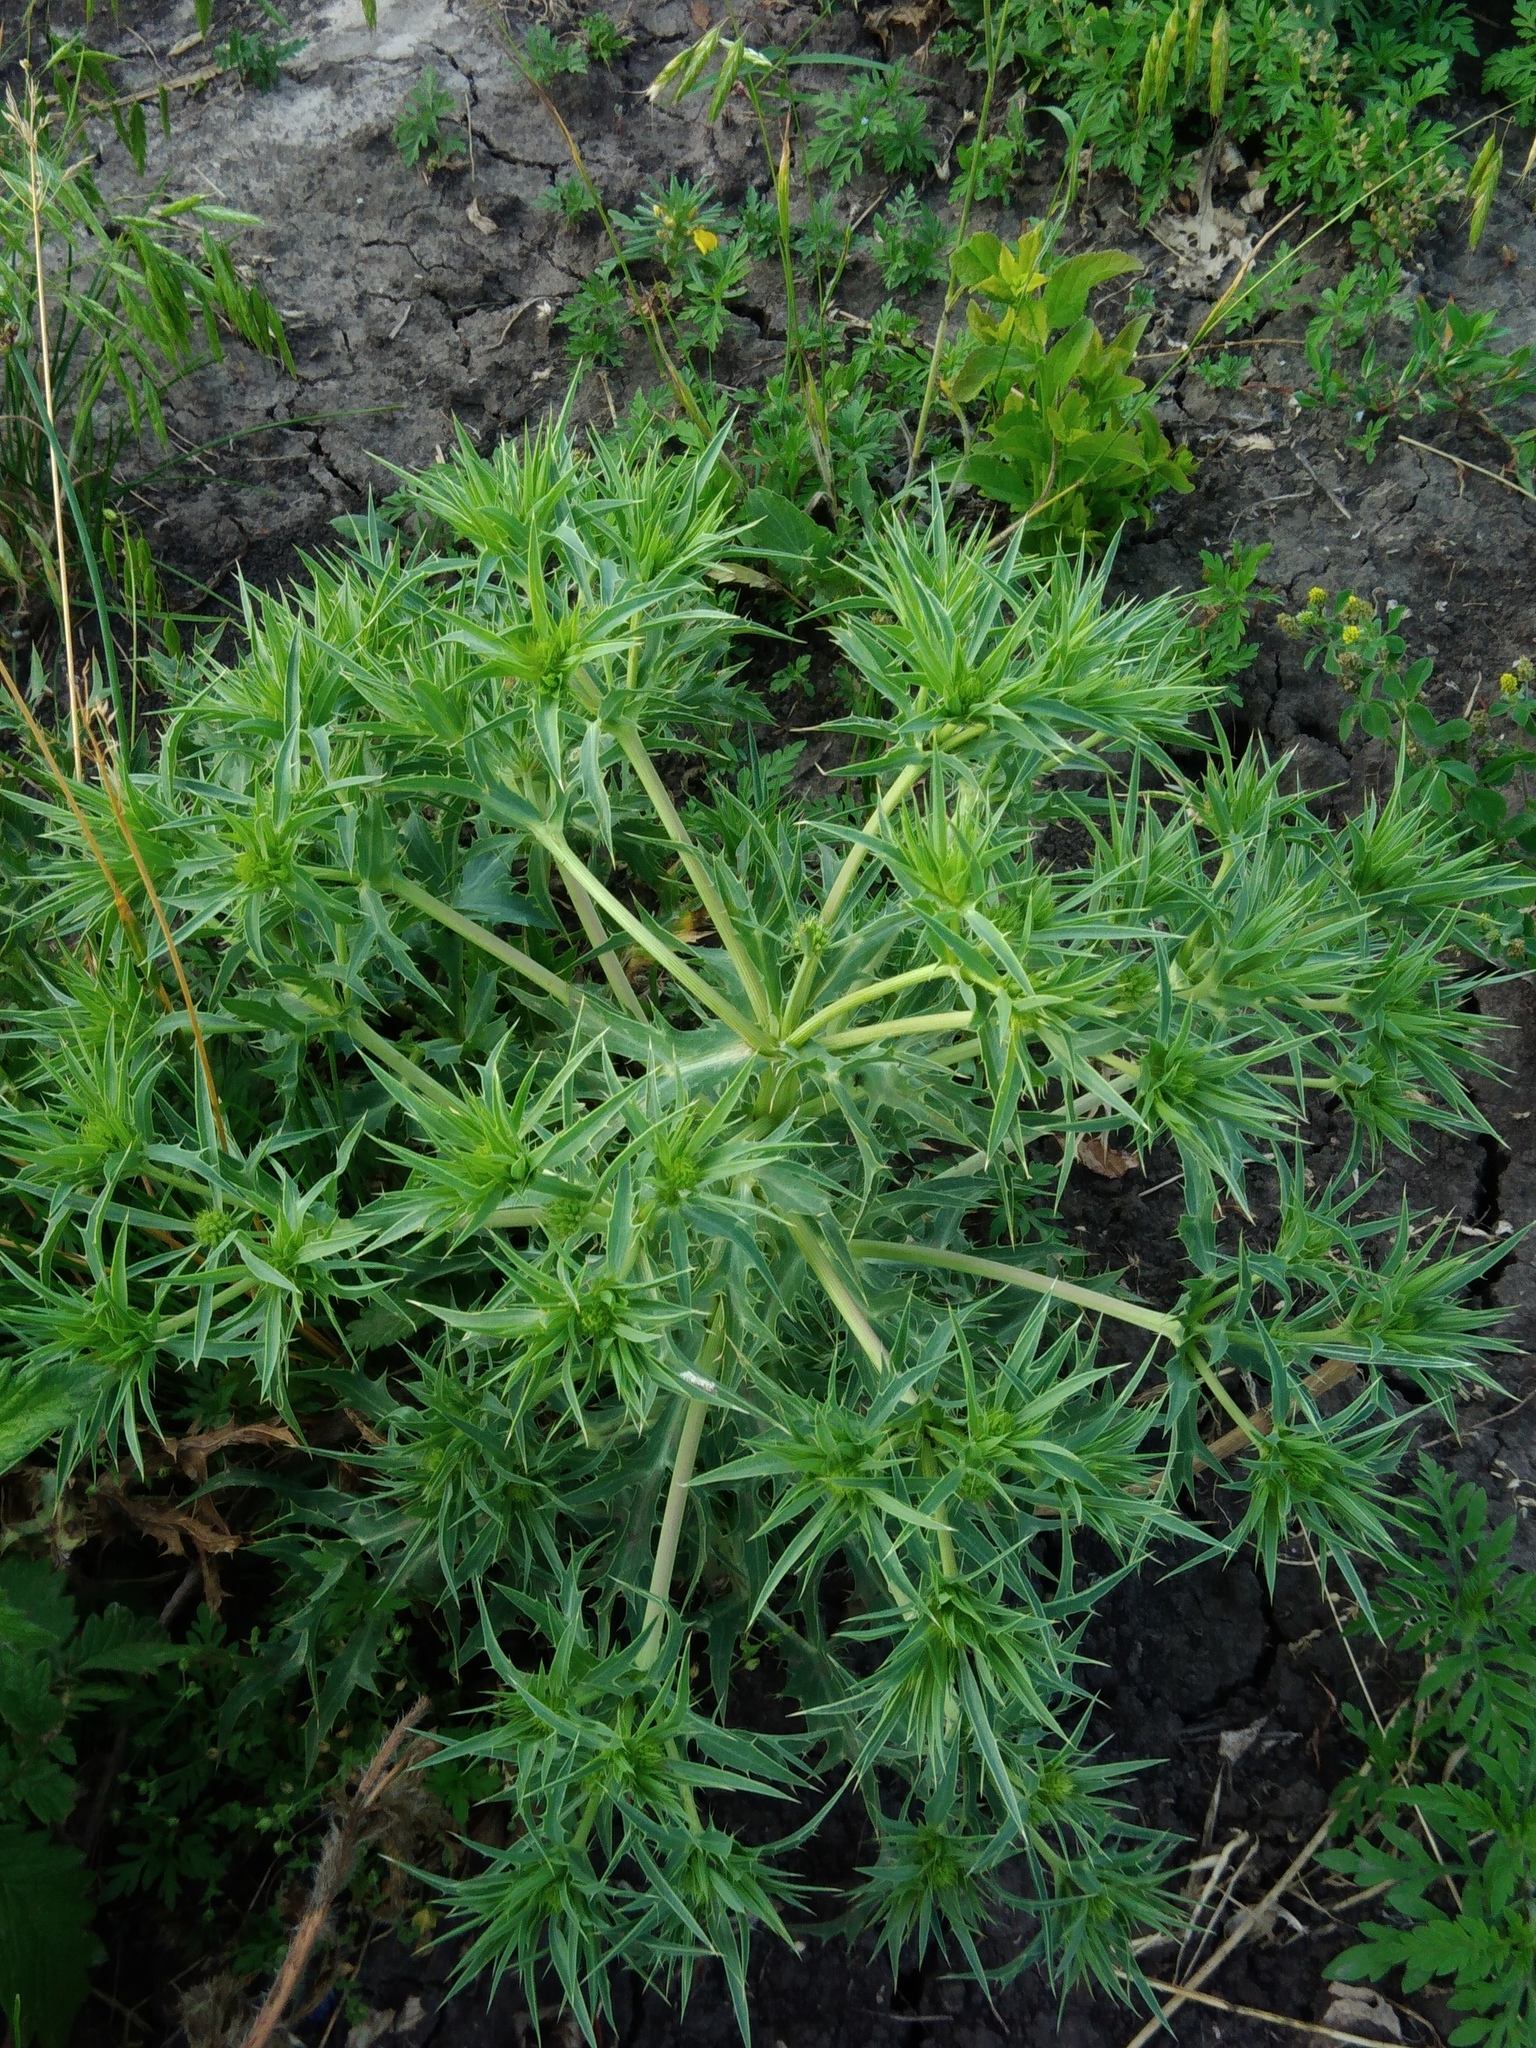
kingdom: Plantae
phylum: Tracheophyta
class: Magnoliopsida
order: Apiales
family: Apiaceae
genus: Eryngium
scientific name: Eryngium campestre
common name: Field eryngo
